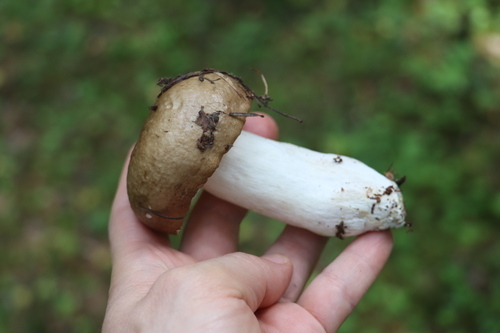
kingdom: Fungi
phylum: Basidiomycota
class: Agaricomycetes
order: Russulales
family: Russulaceae
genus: Russula
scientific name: Russula consobrina
